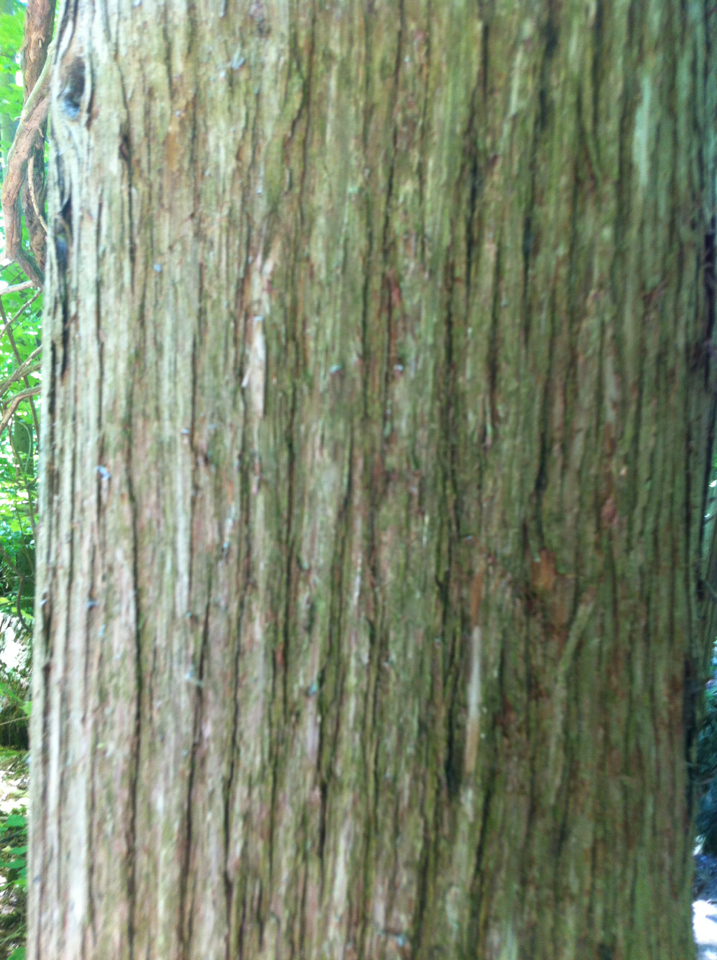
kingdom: Plantae
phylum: Tracheophyta
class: Pinopsida
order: Pinales
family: Cupressaceae
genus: Thuja
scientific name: Thuja occidentalis
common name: Northern white-cedar
